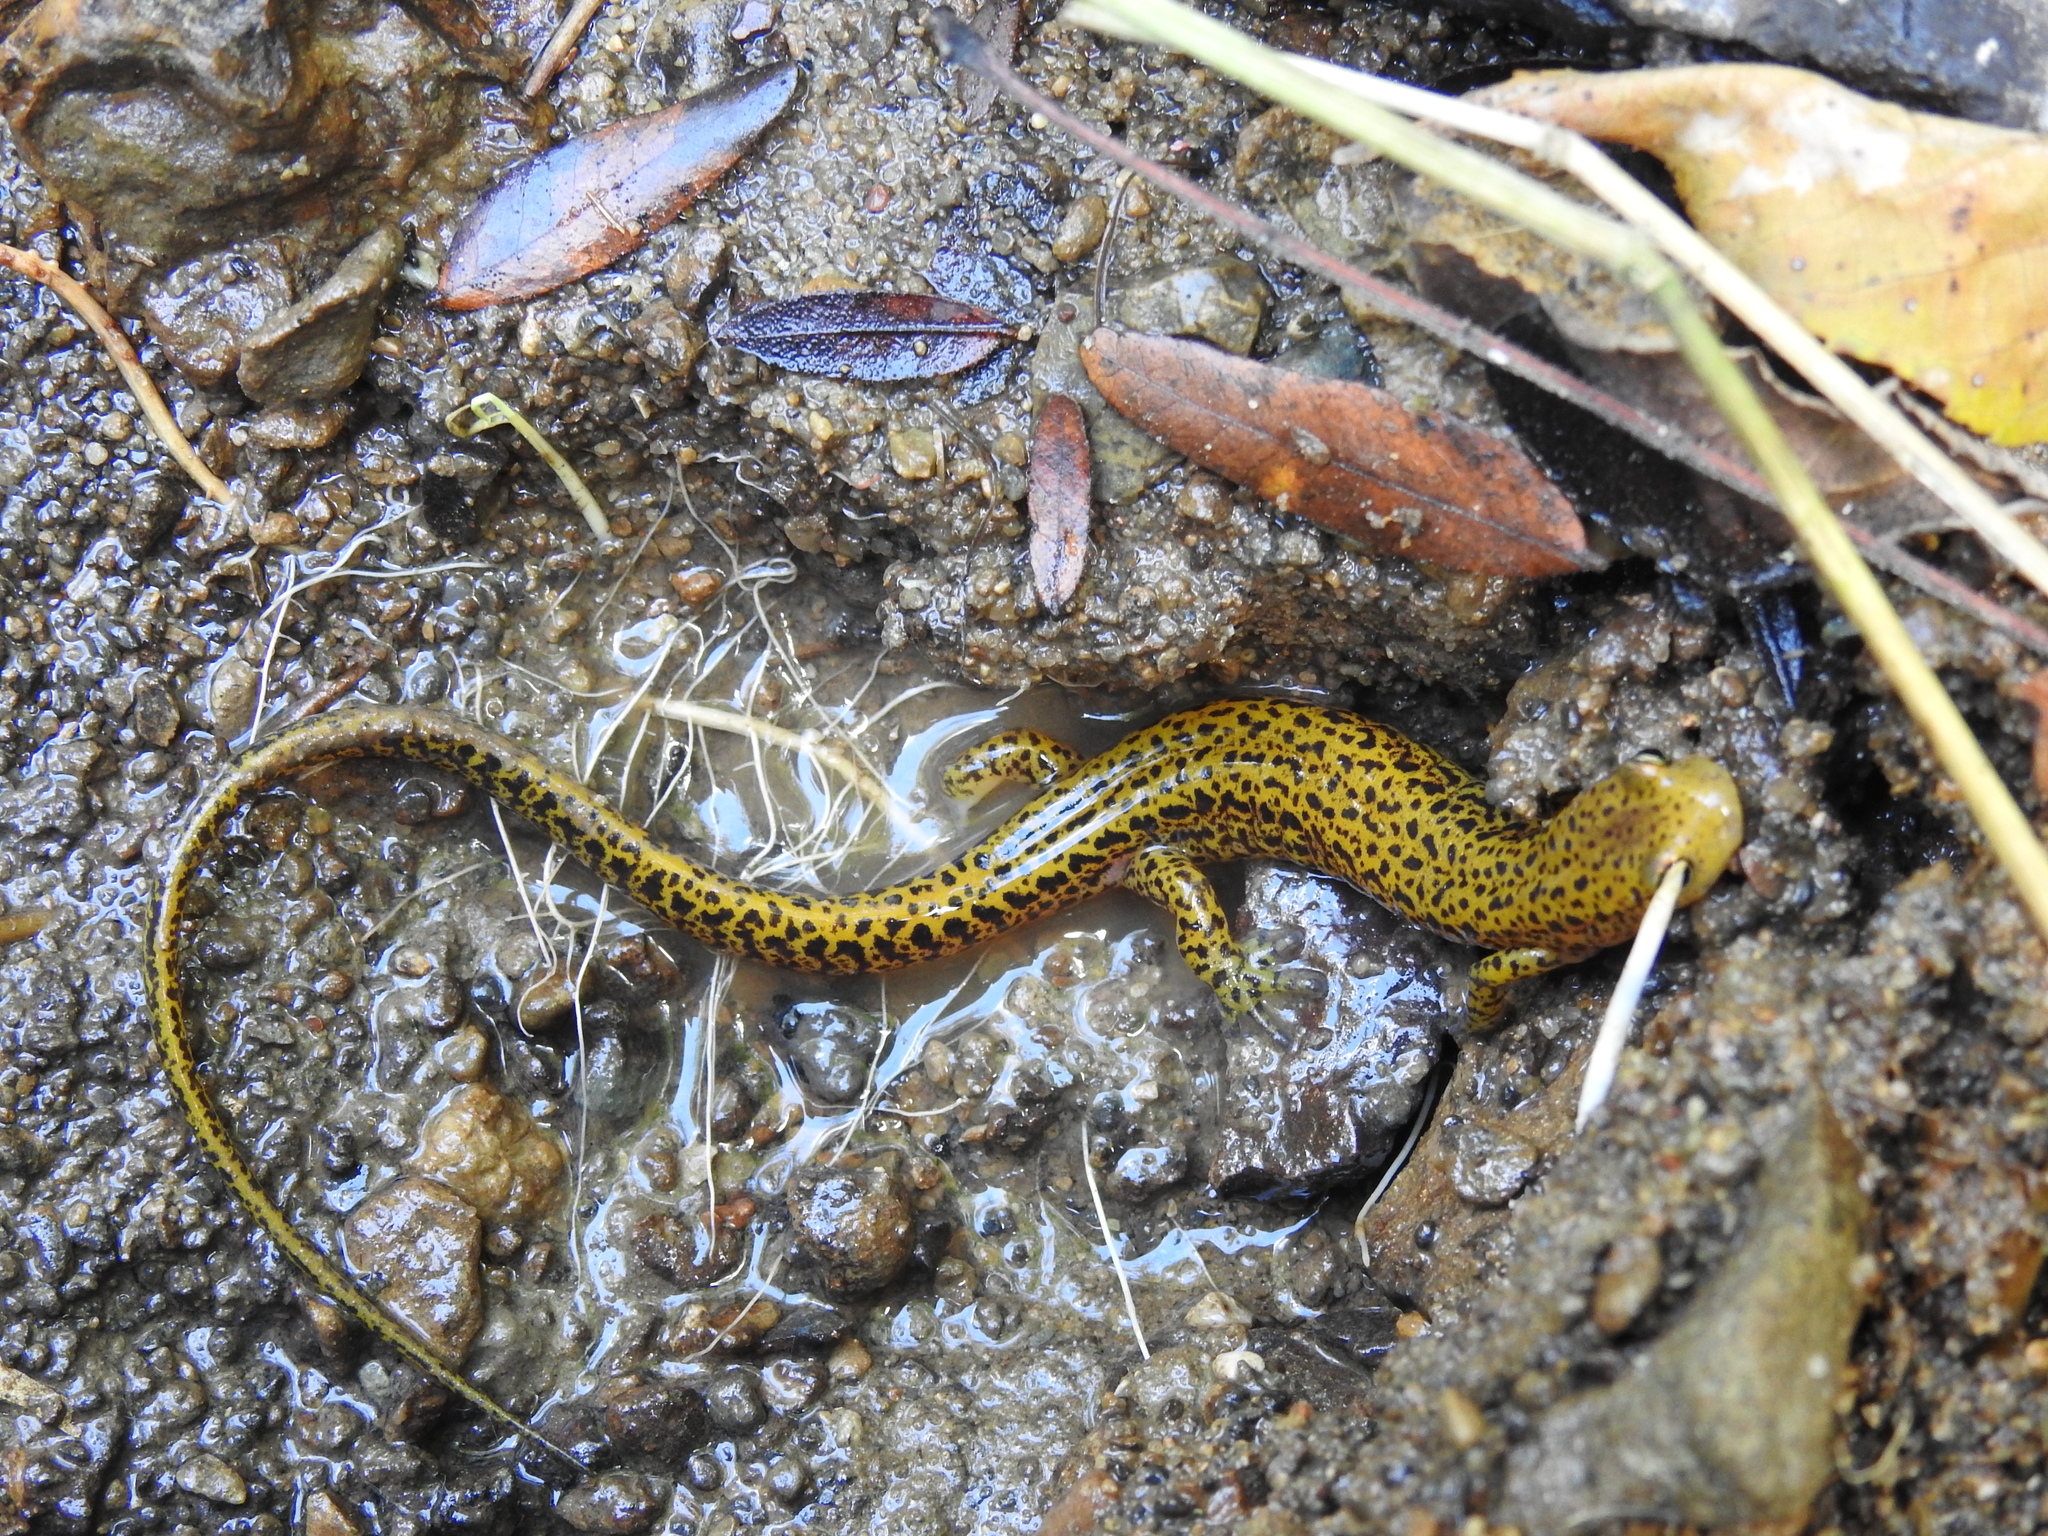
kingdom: Animalia
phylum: Chordata
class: Amphibia
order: Caudata
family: Plethodontidae
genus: Eurycea
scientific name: Eurycea longicauda
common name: Long-tailed salamander
